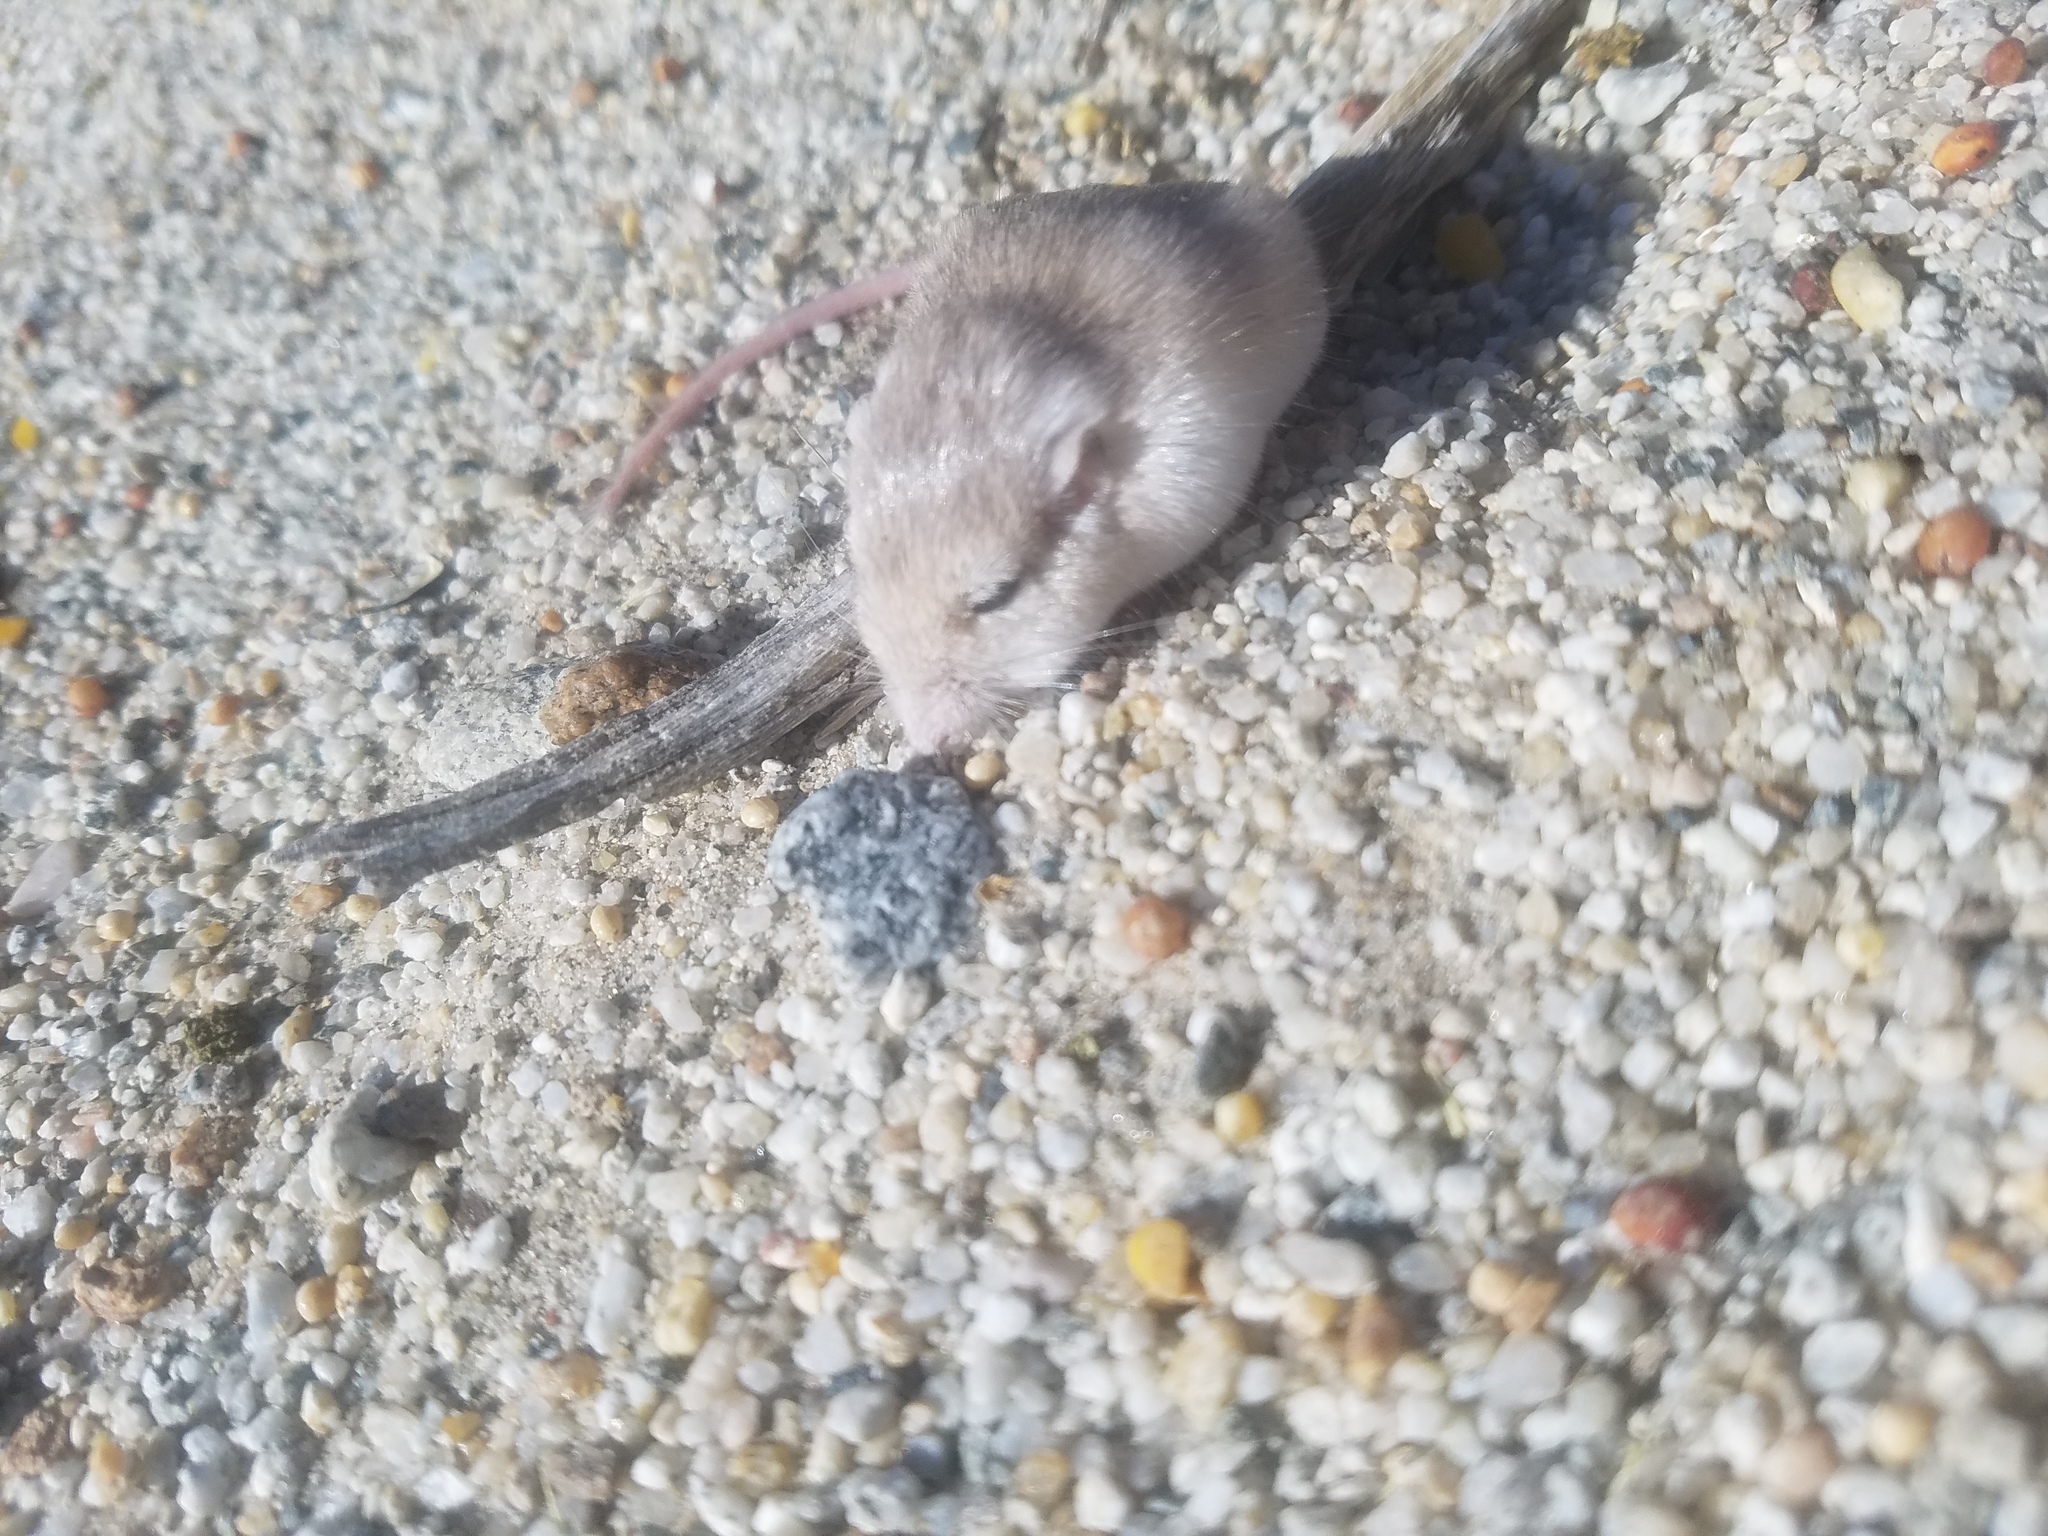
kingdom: Animalia
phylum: Chordata
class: Mammalia
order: Rodentia
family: Heteromyidae
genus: Perognathus
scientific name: Perognathus longimembris
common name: Little pocket mouse
